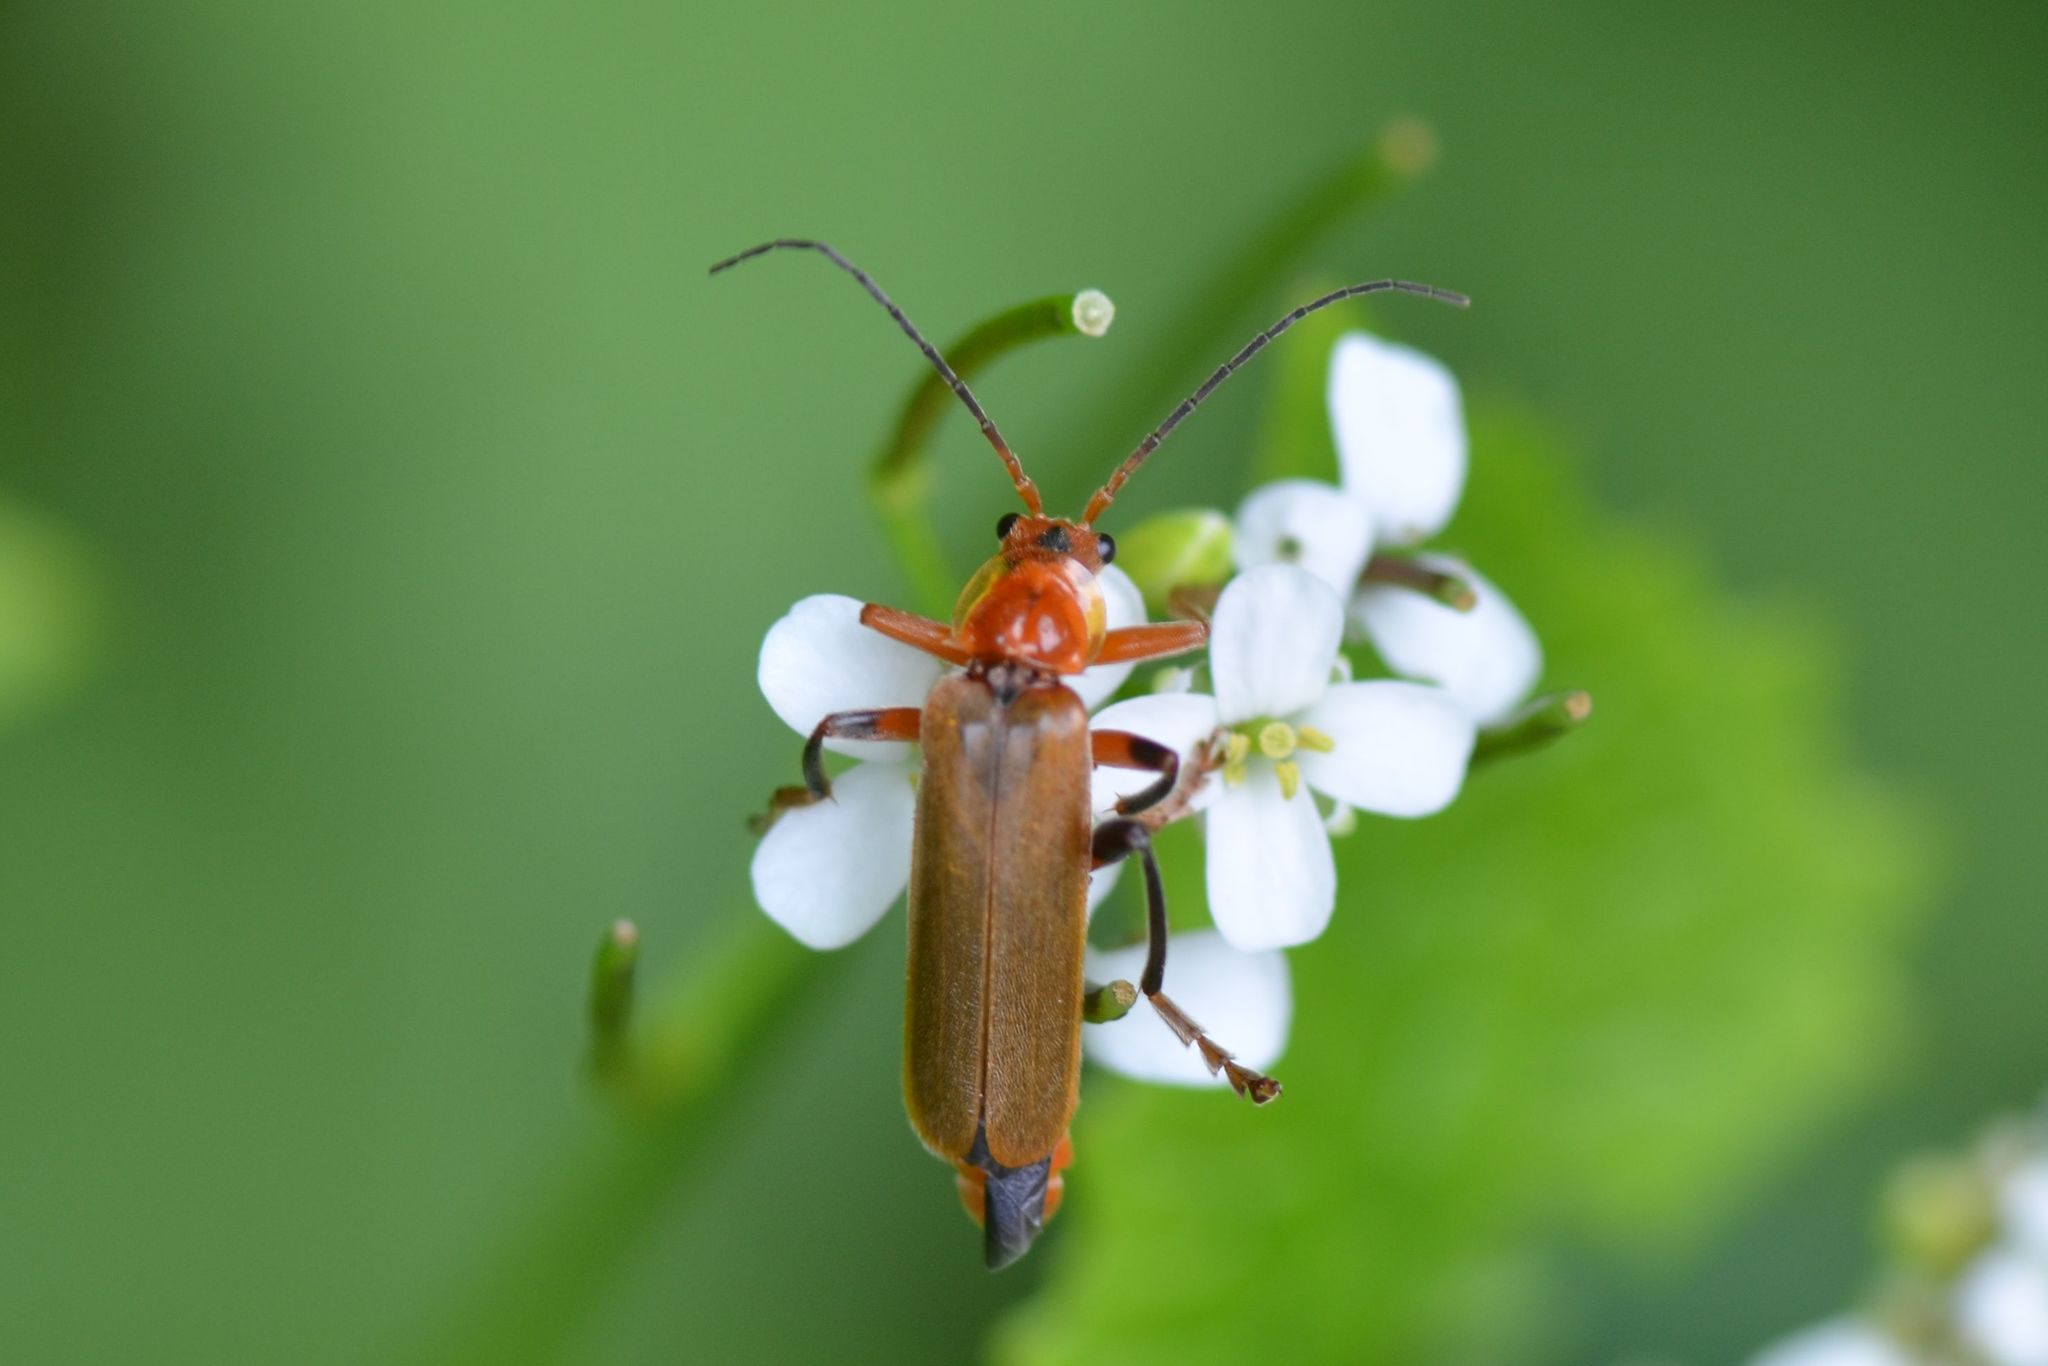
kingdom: Animalia
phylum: Arthropoda
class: Insecta
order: Coleoptera
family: Cantharidae
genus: Cantharis
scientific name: Cantharis livida
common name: Livid soldier beetle
